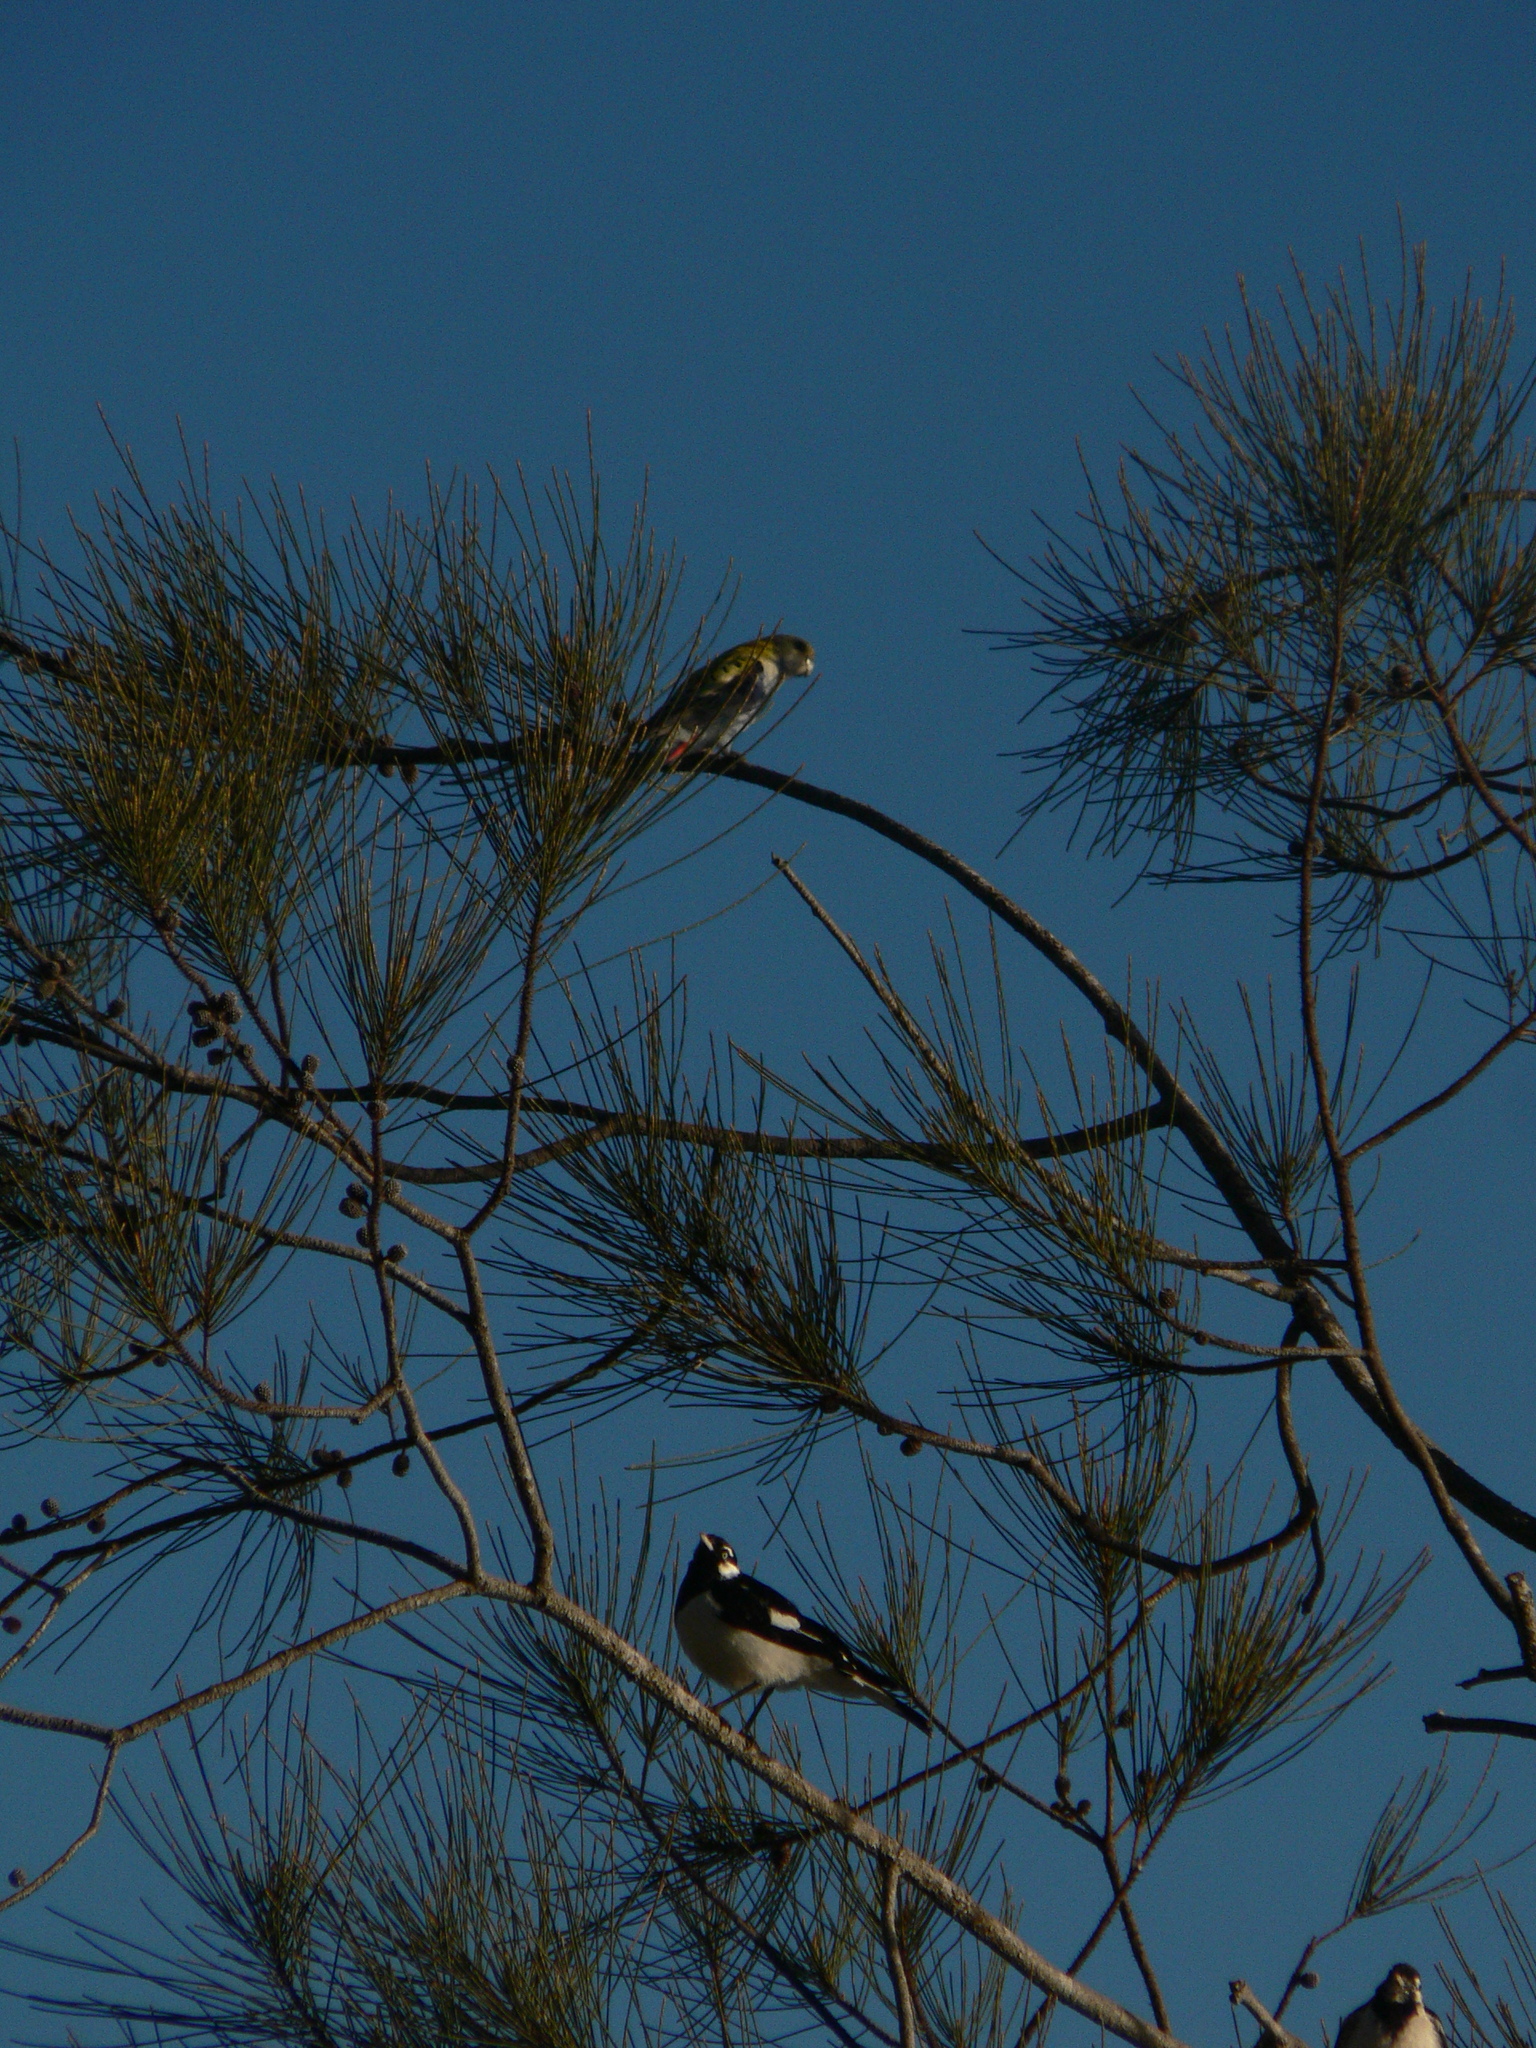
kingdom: Animalia
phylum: Chordata
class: Aves
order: Psittaciformes
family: Psittacidae
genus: Platycercus
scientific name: Platycercus adscitus
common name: Pale-headed rosella
